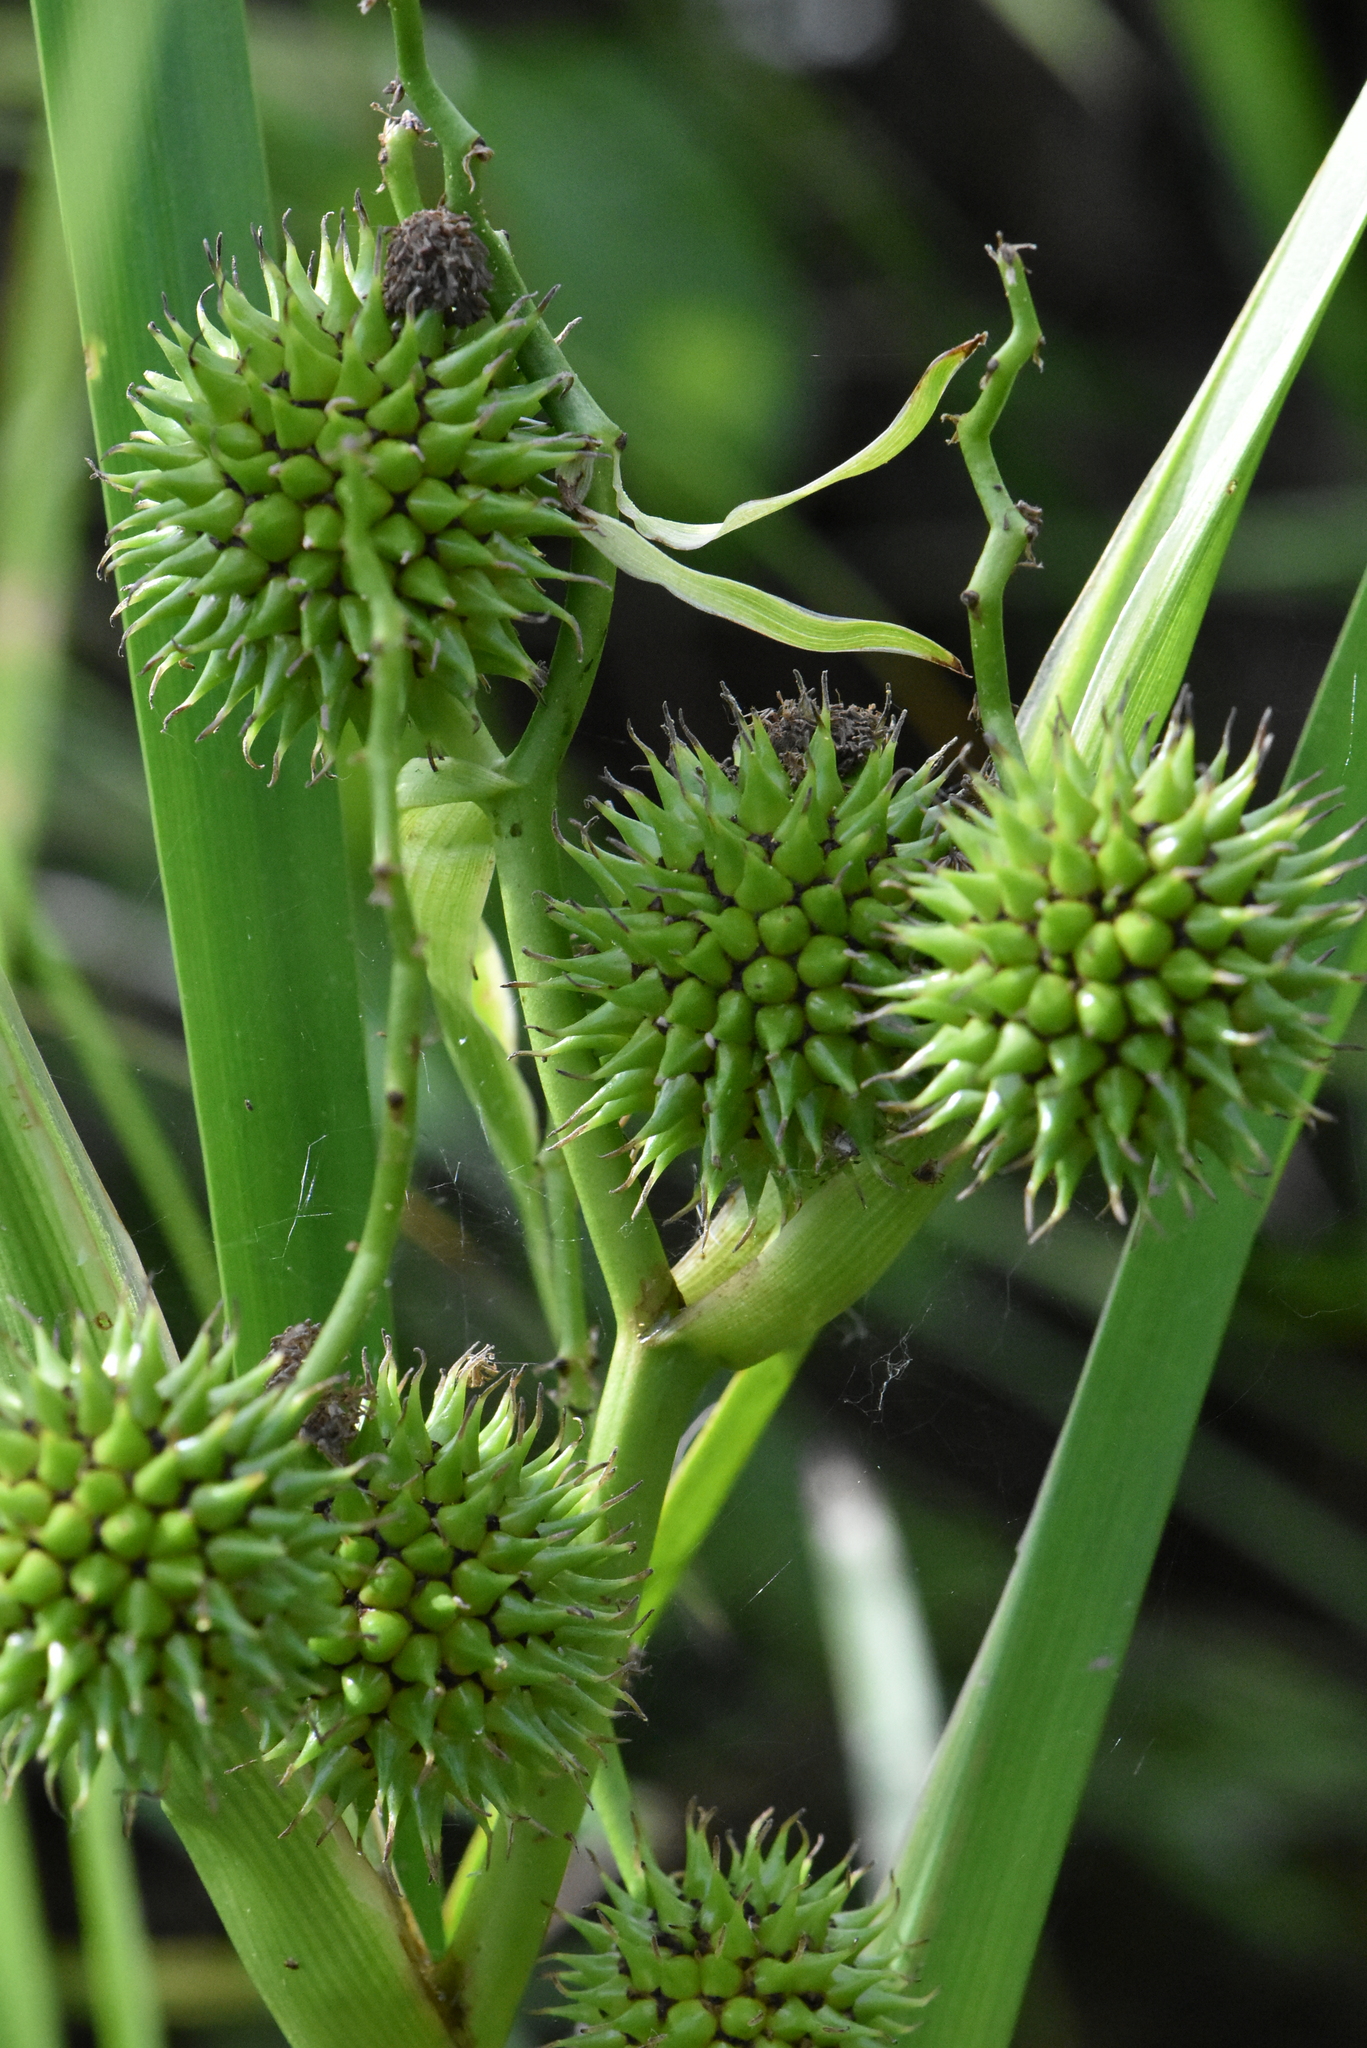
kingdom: Plantae
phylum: Tracheophyta
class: Liliopsida
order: Poales
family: Typhaceae
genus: Sparganium
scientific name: Sparganium erectum
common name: Branched bur-reed
